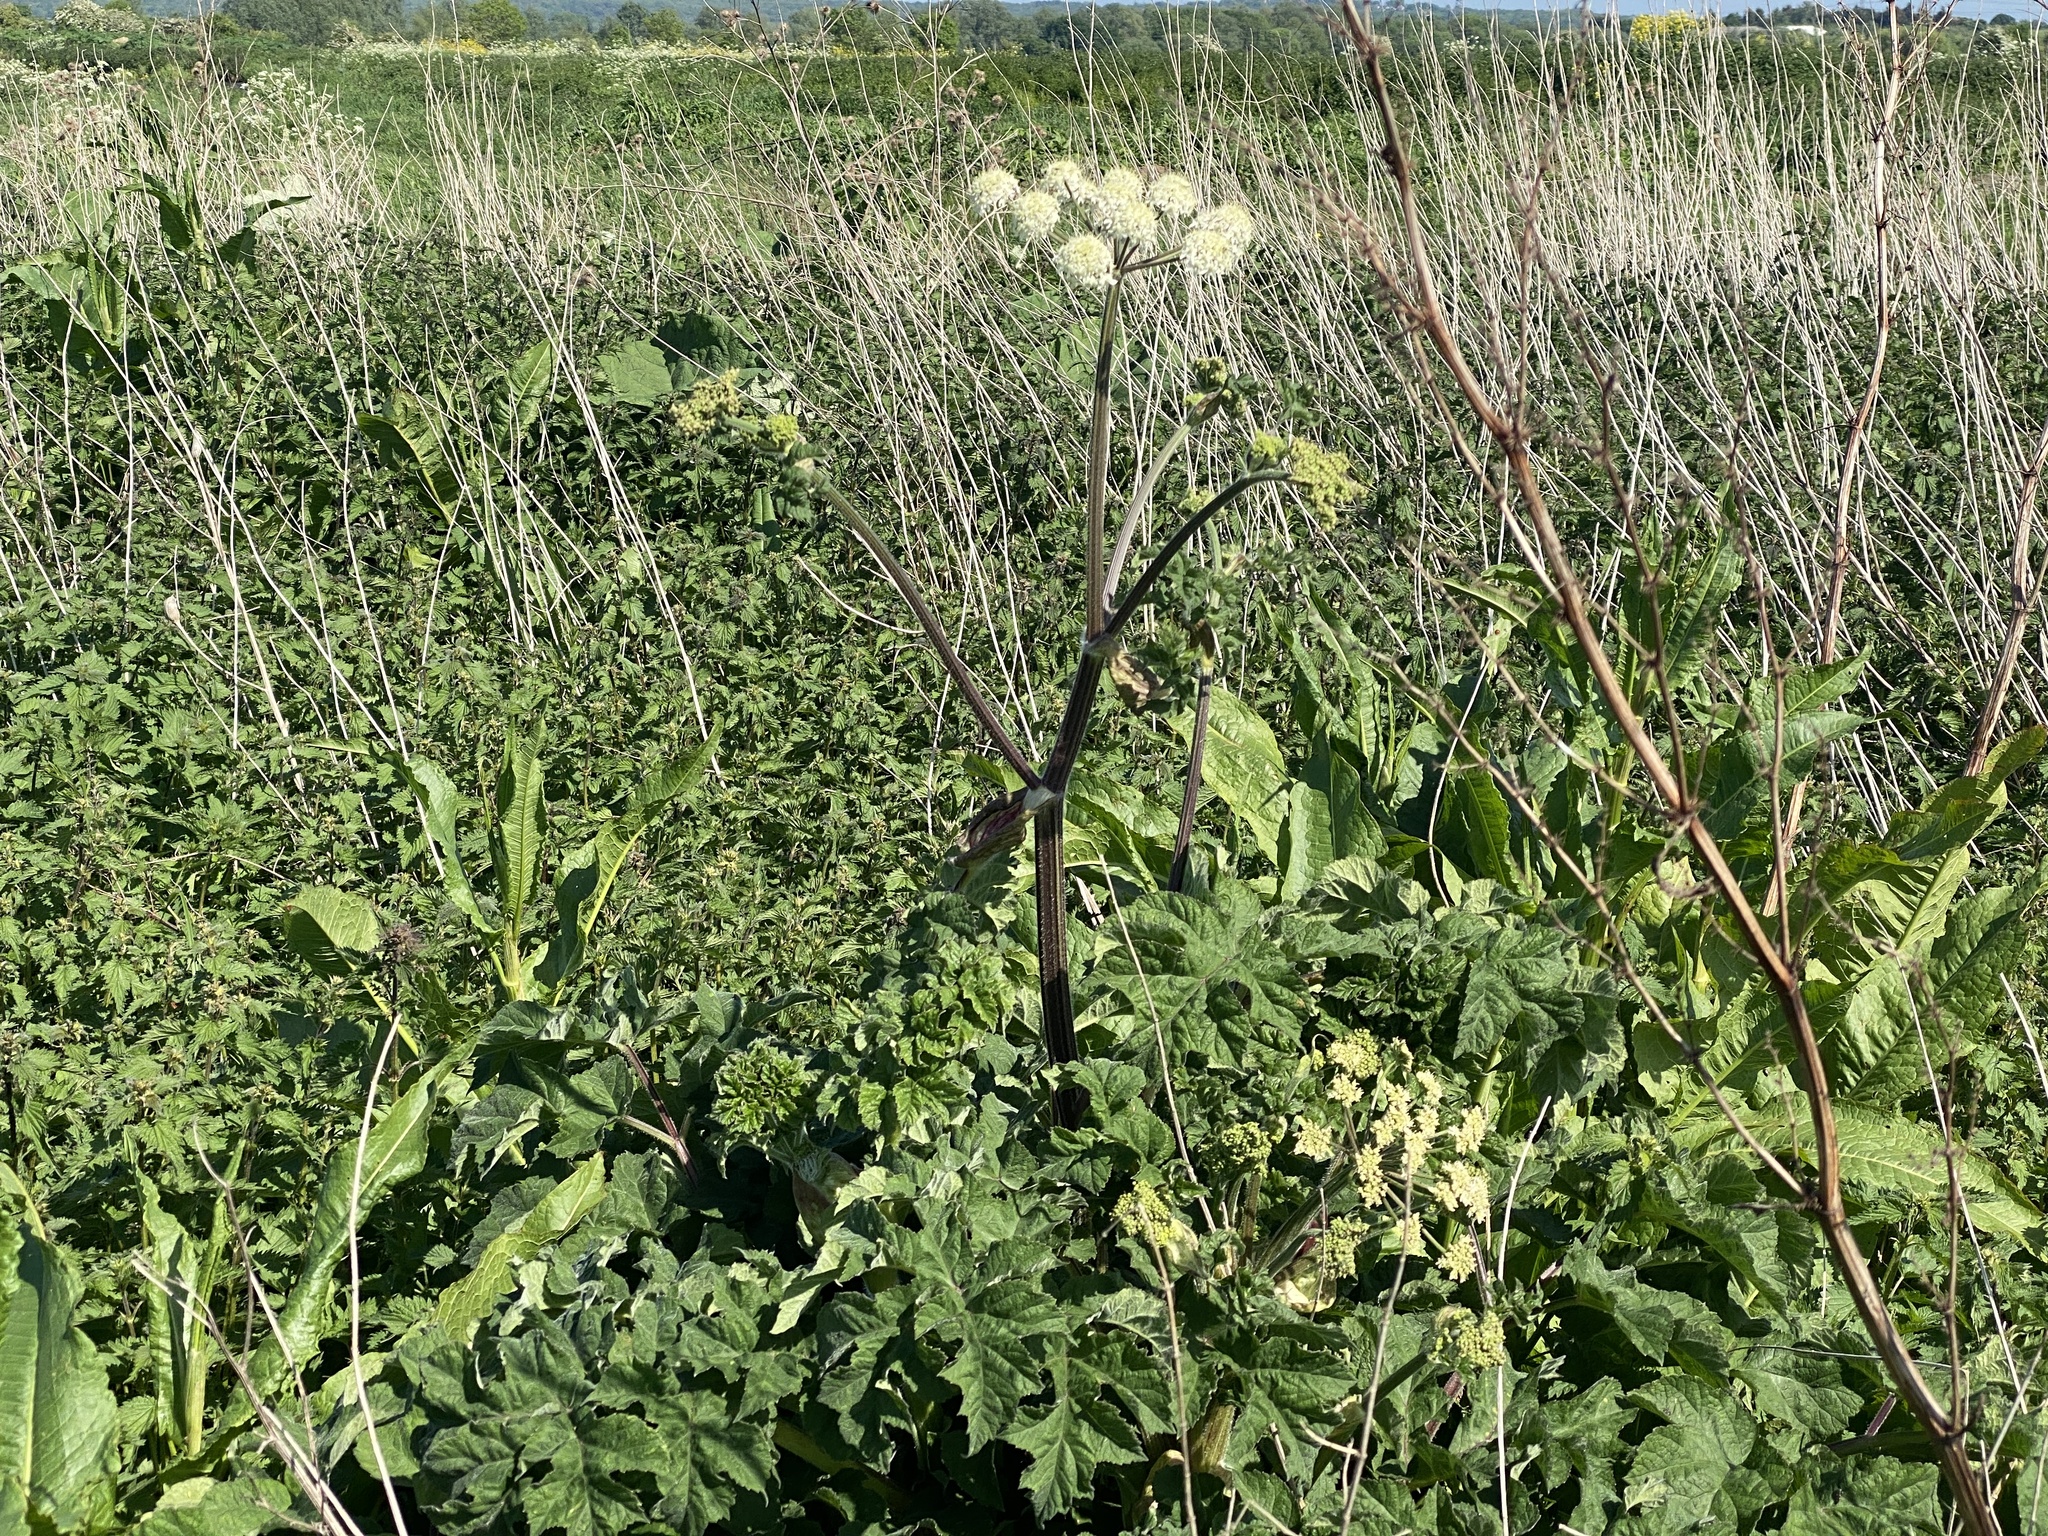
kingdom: Plantae
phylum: Tracheophyta
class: Magnoliopsida
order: Apiales
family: Apiaceae
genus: Heracleum
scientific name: Heracleum sphondylium
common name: Hogweed
